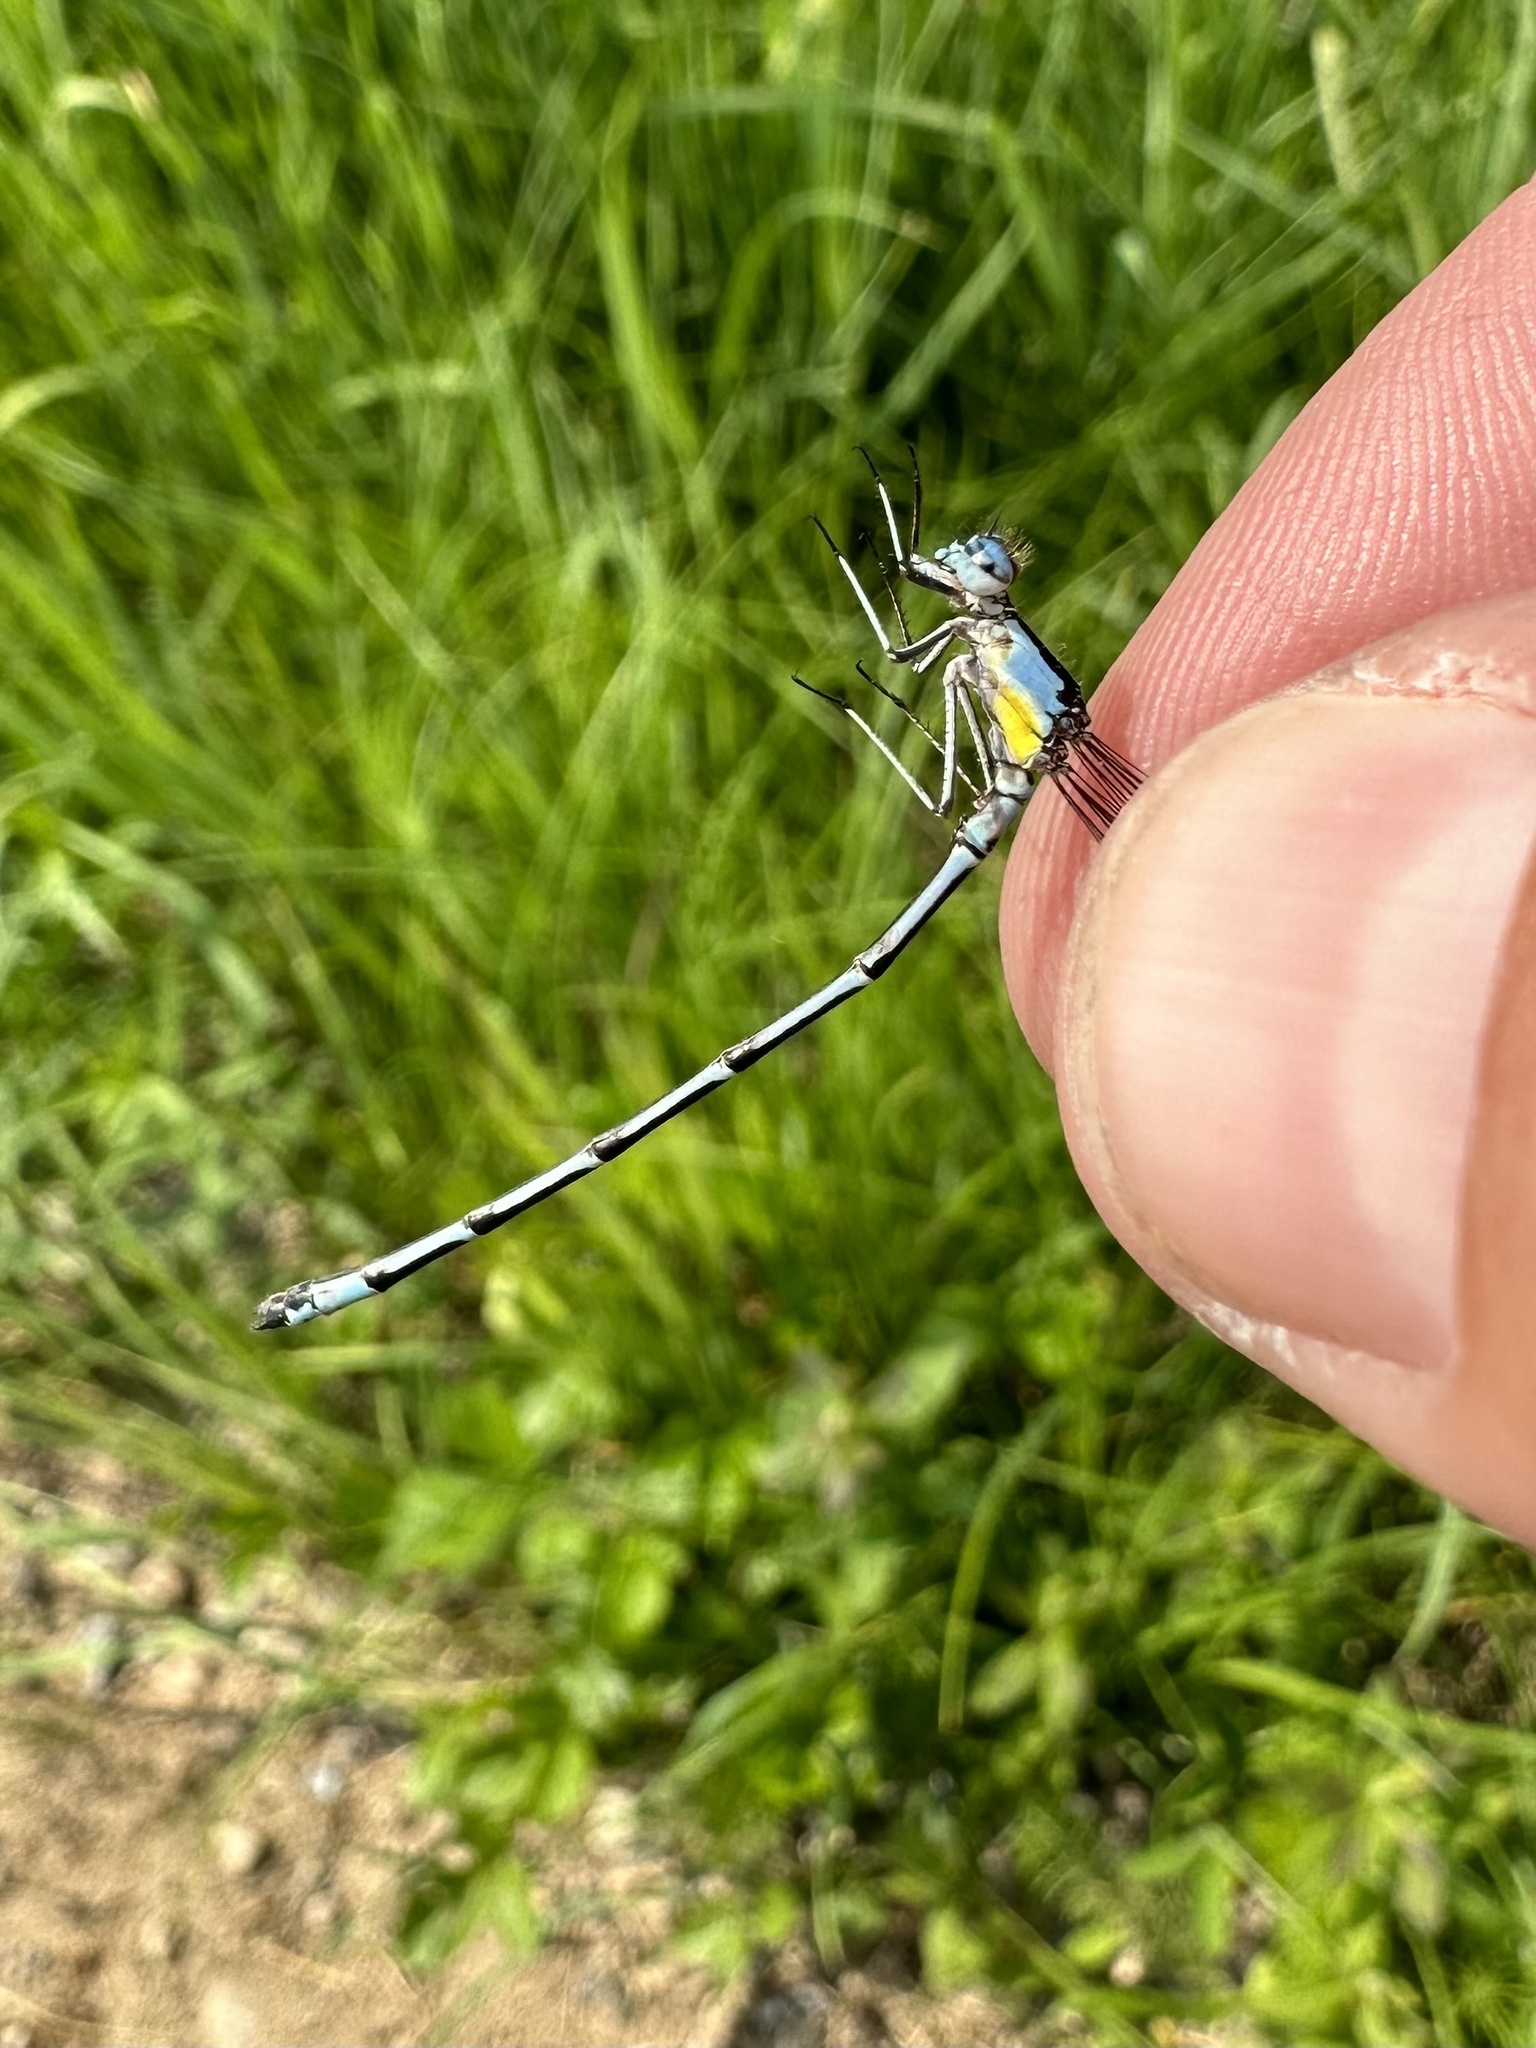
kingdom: Animalia
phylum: Arthropoda
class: Insecta
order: Odonata
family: Coenagrionidae
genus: Chromagrion
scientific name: Chromagrion conditum
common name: Aurora damsel
